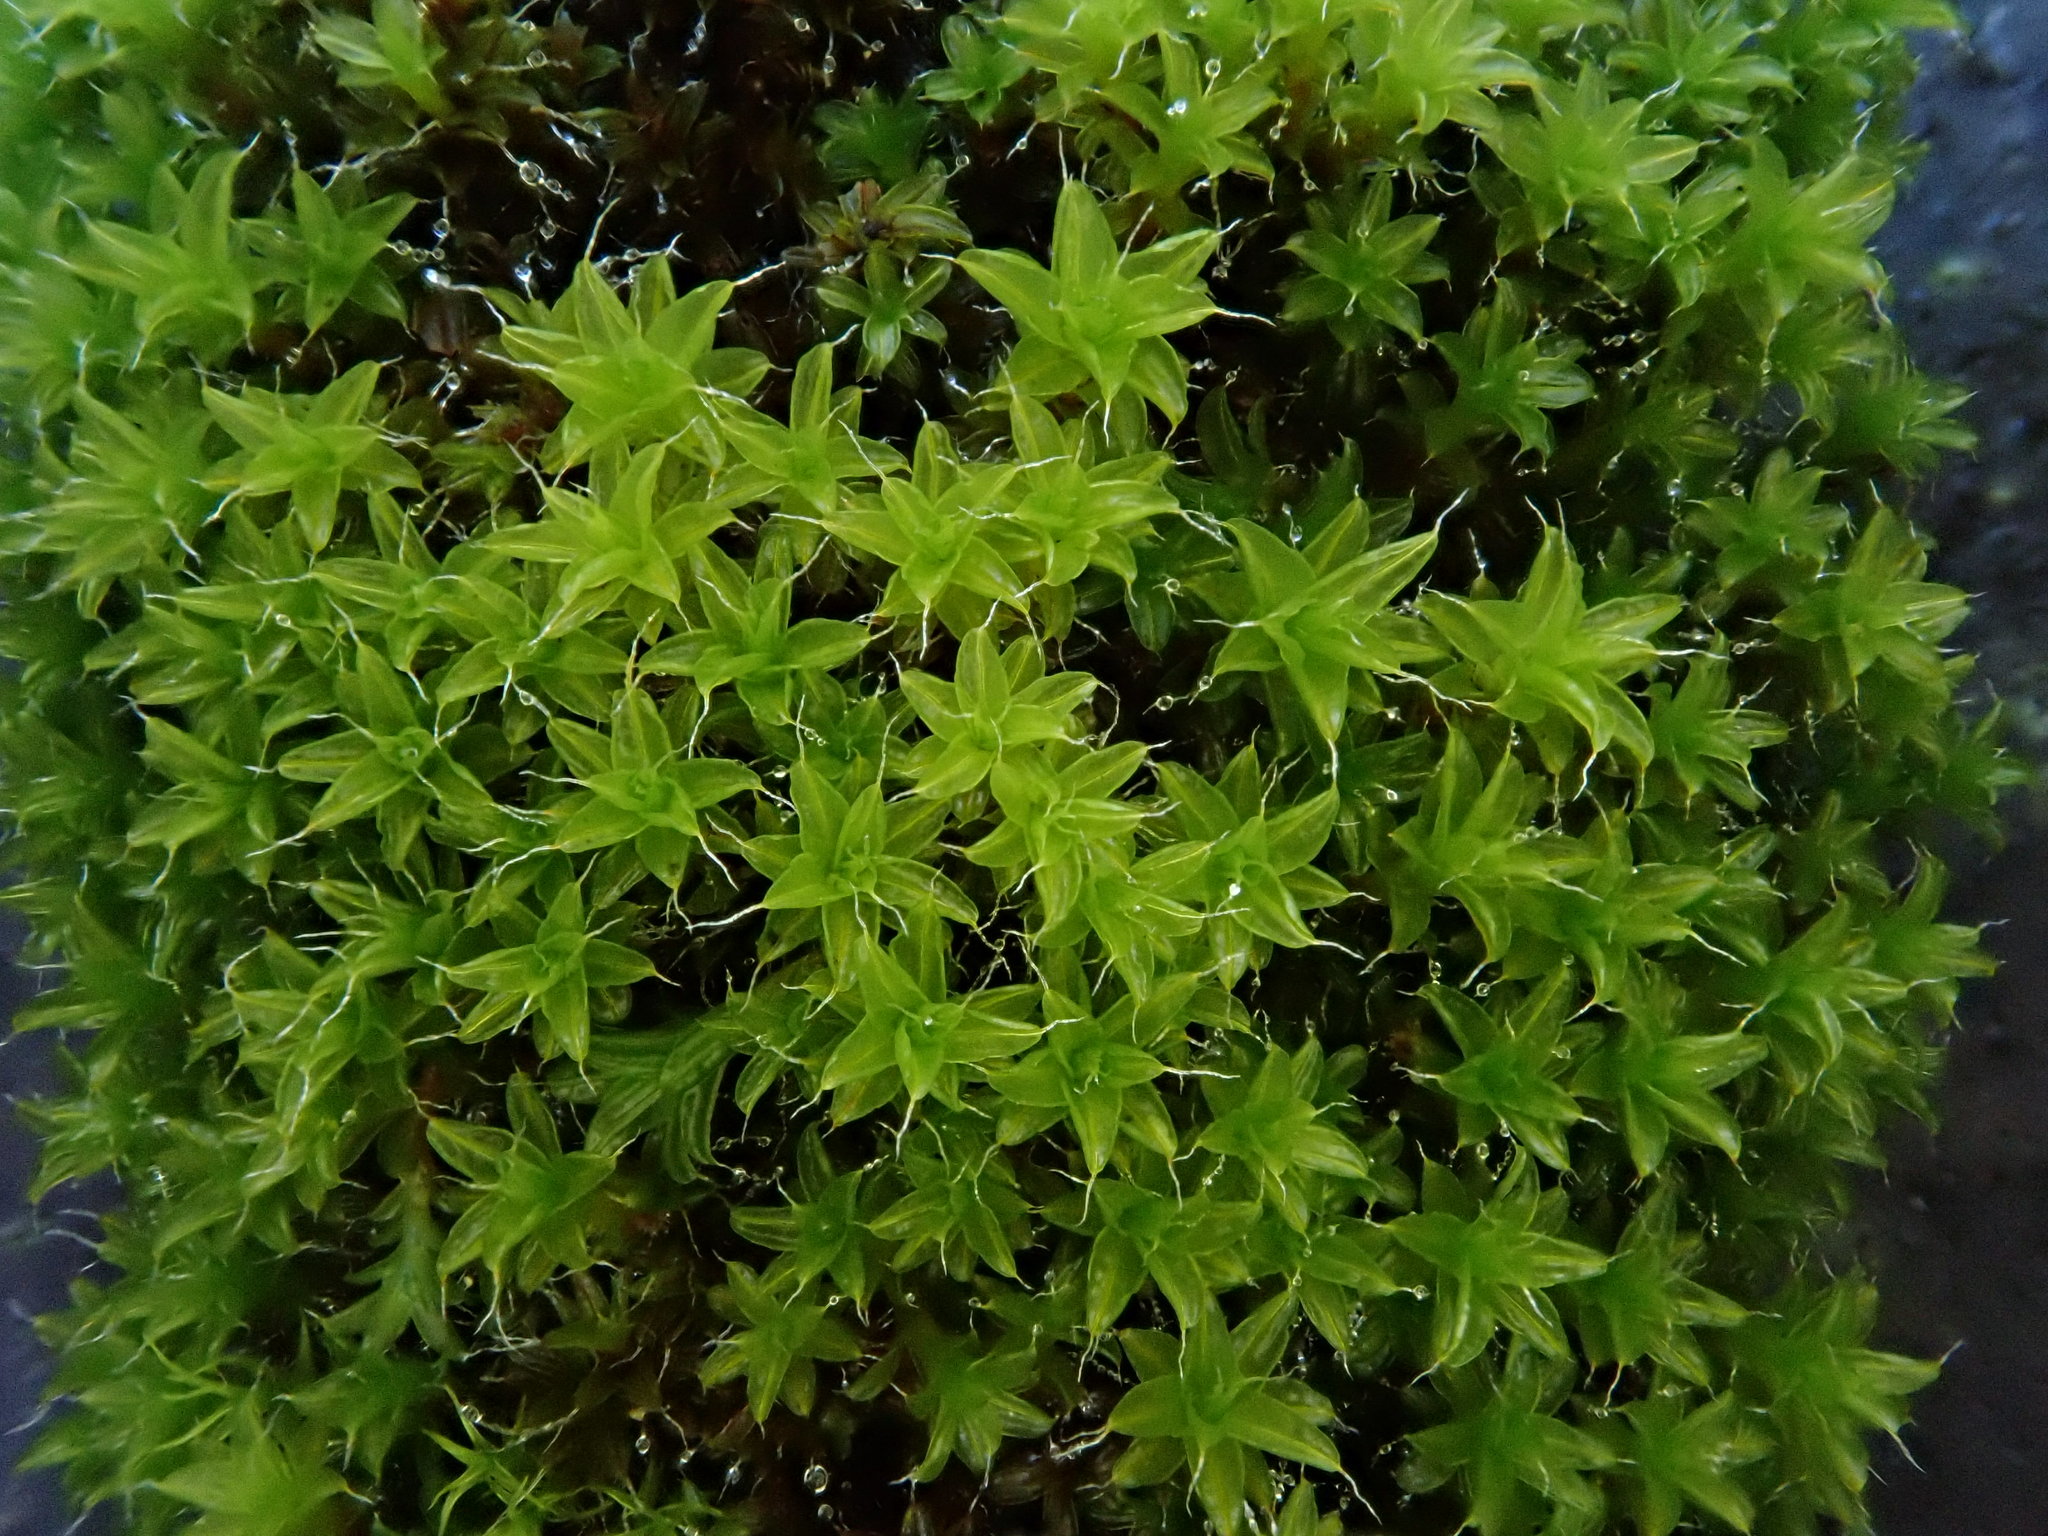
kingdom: Plantae
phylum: Bryophyta
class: Bryopsida
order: Pottiales
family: Pottiaceae
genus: Syntrichia
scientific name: Syntrichia ruralis
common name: Sidewalk screw moss
